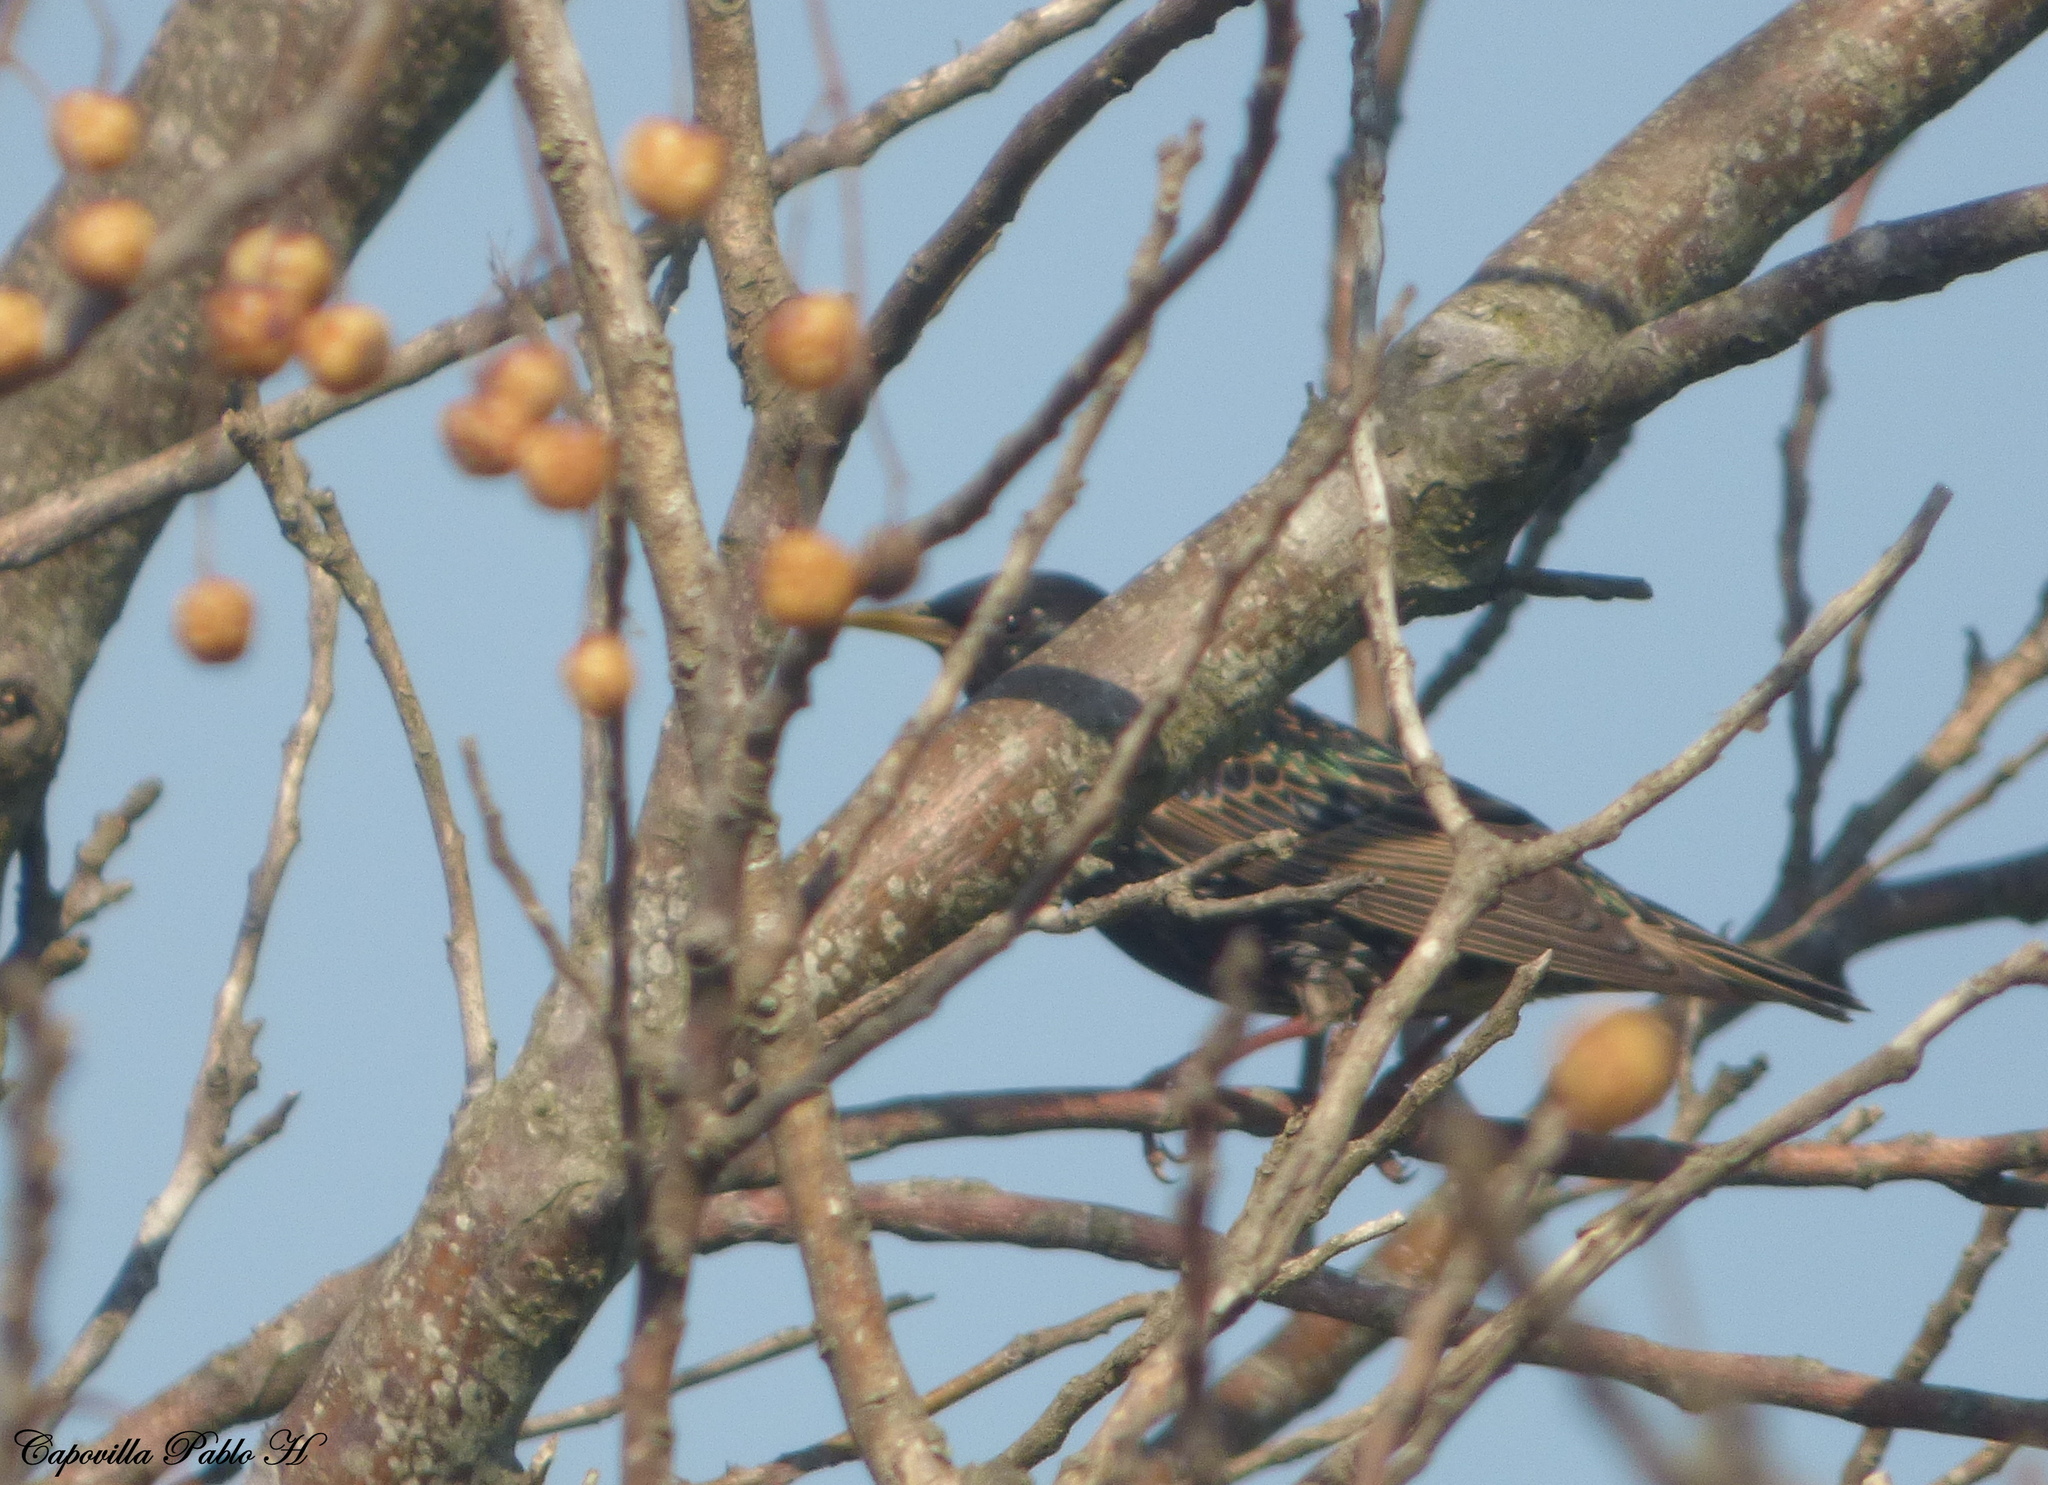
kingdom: Animalia
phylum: Chordata
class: Aves
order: Passeriformes
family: Sturnidae
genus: Sturnus
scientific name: Sturnus vulgaris
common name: Common starling
